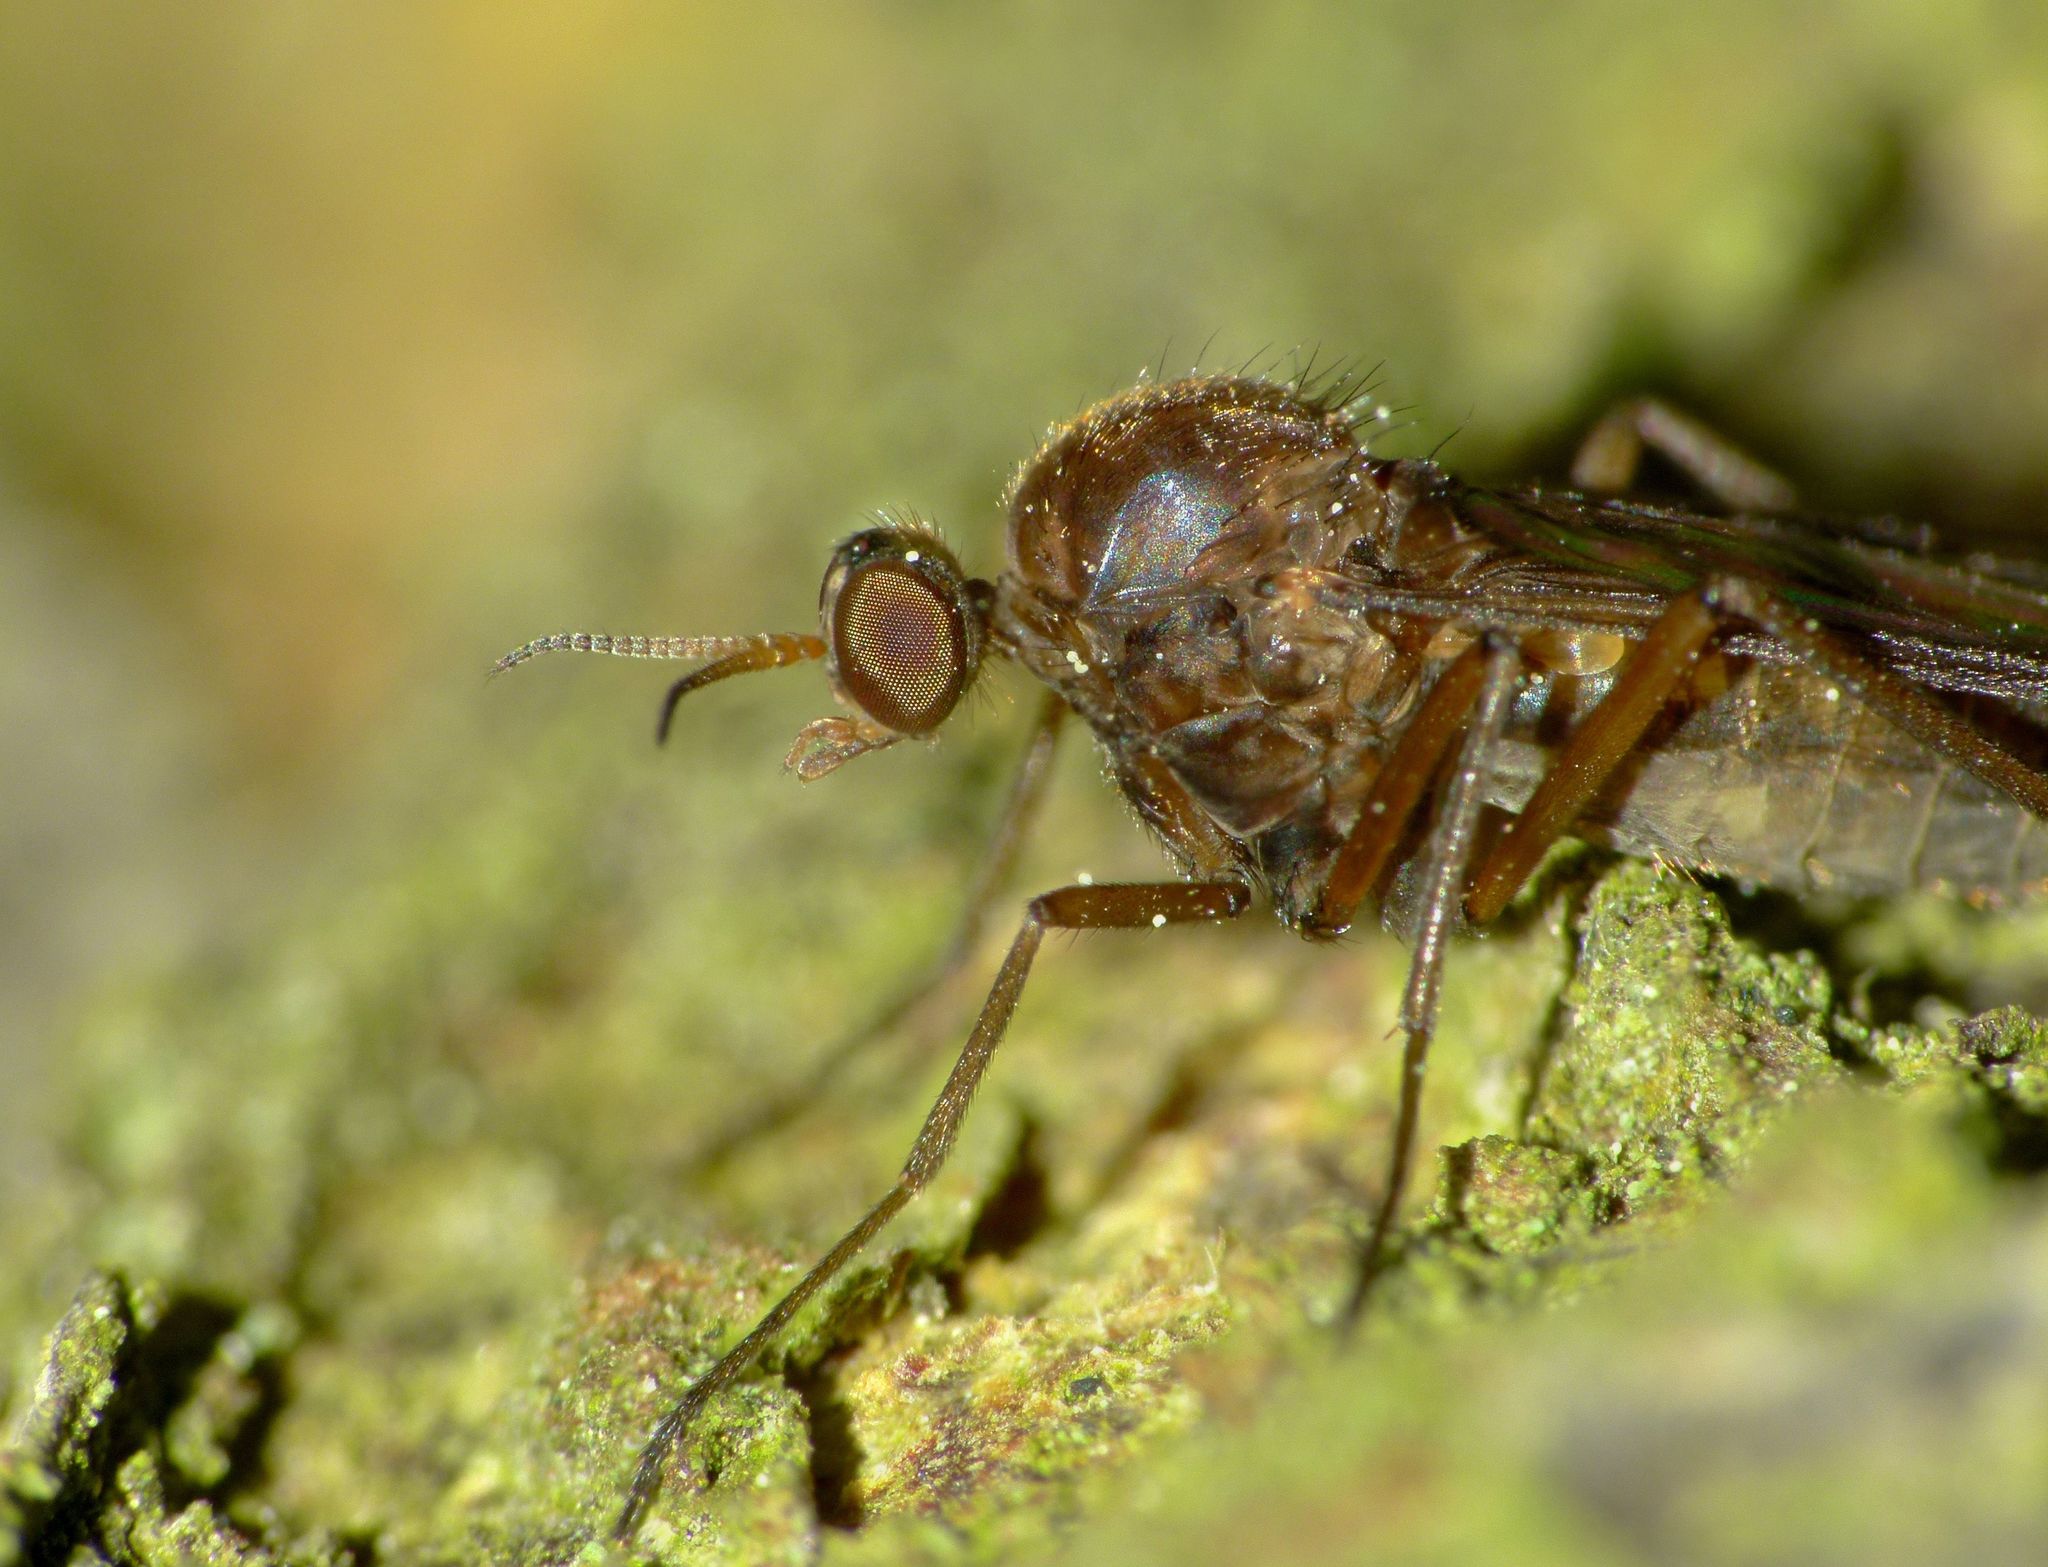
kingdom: Animalia
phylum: Arthropoda
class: Insecta
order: Diptera
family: Anisopodidae
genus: Sylvicola
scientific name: Sylvicola neozelandicus
